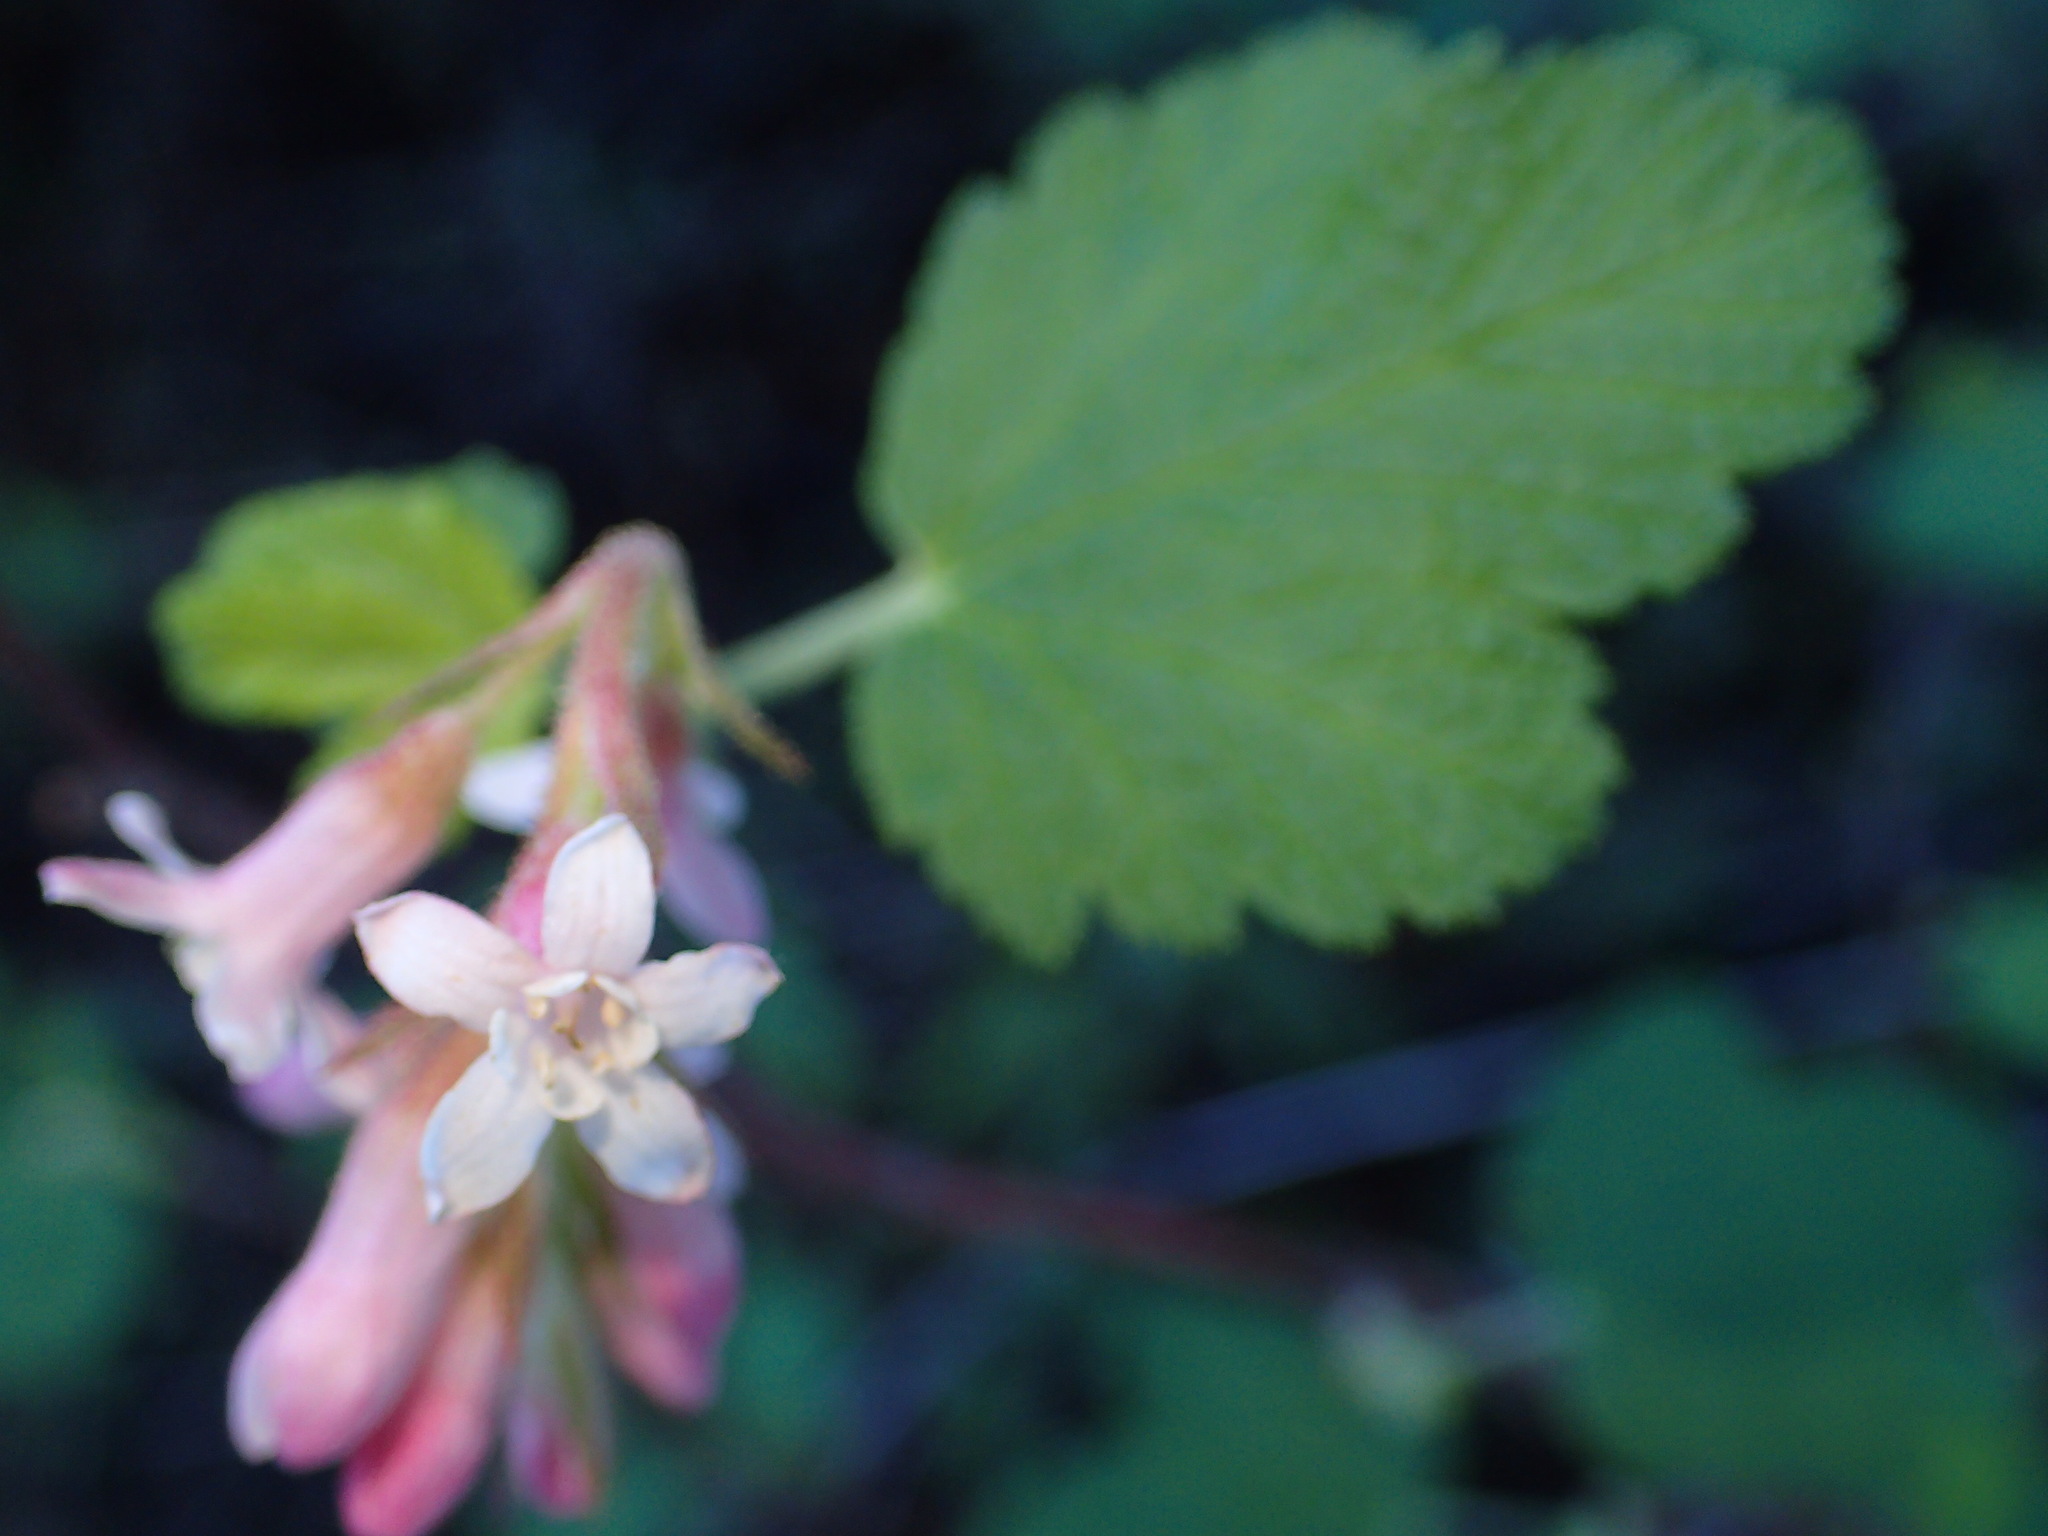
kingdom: Plantae
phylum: Tracheophyta
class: Magnoliopsida
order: Saxifragales
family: Grossulariaceae
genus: Ribes
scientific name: Ribes malvaceum
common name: Chaparral currant
